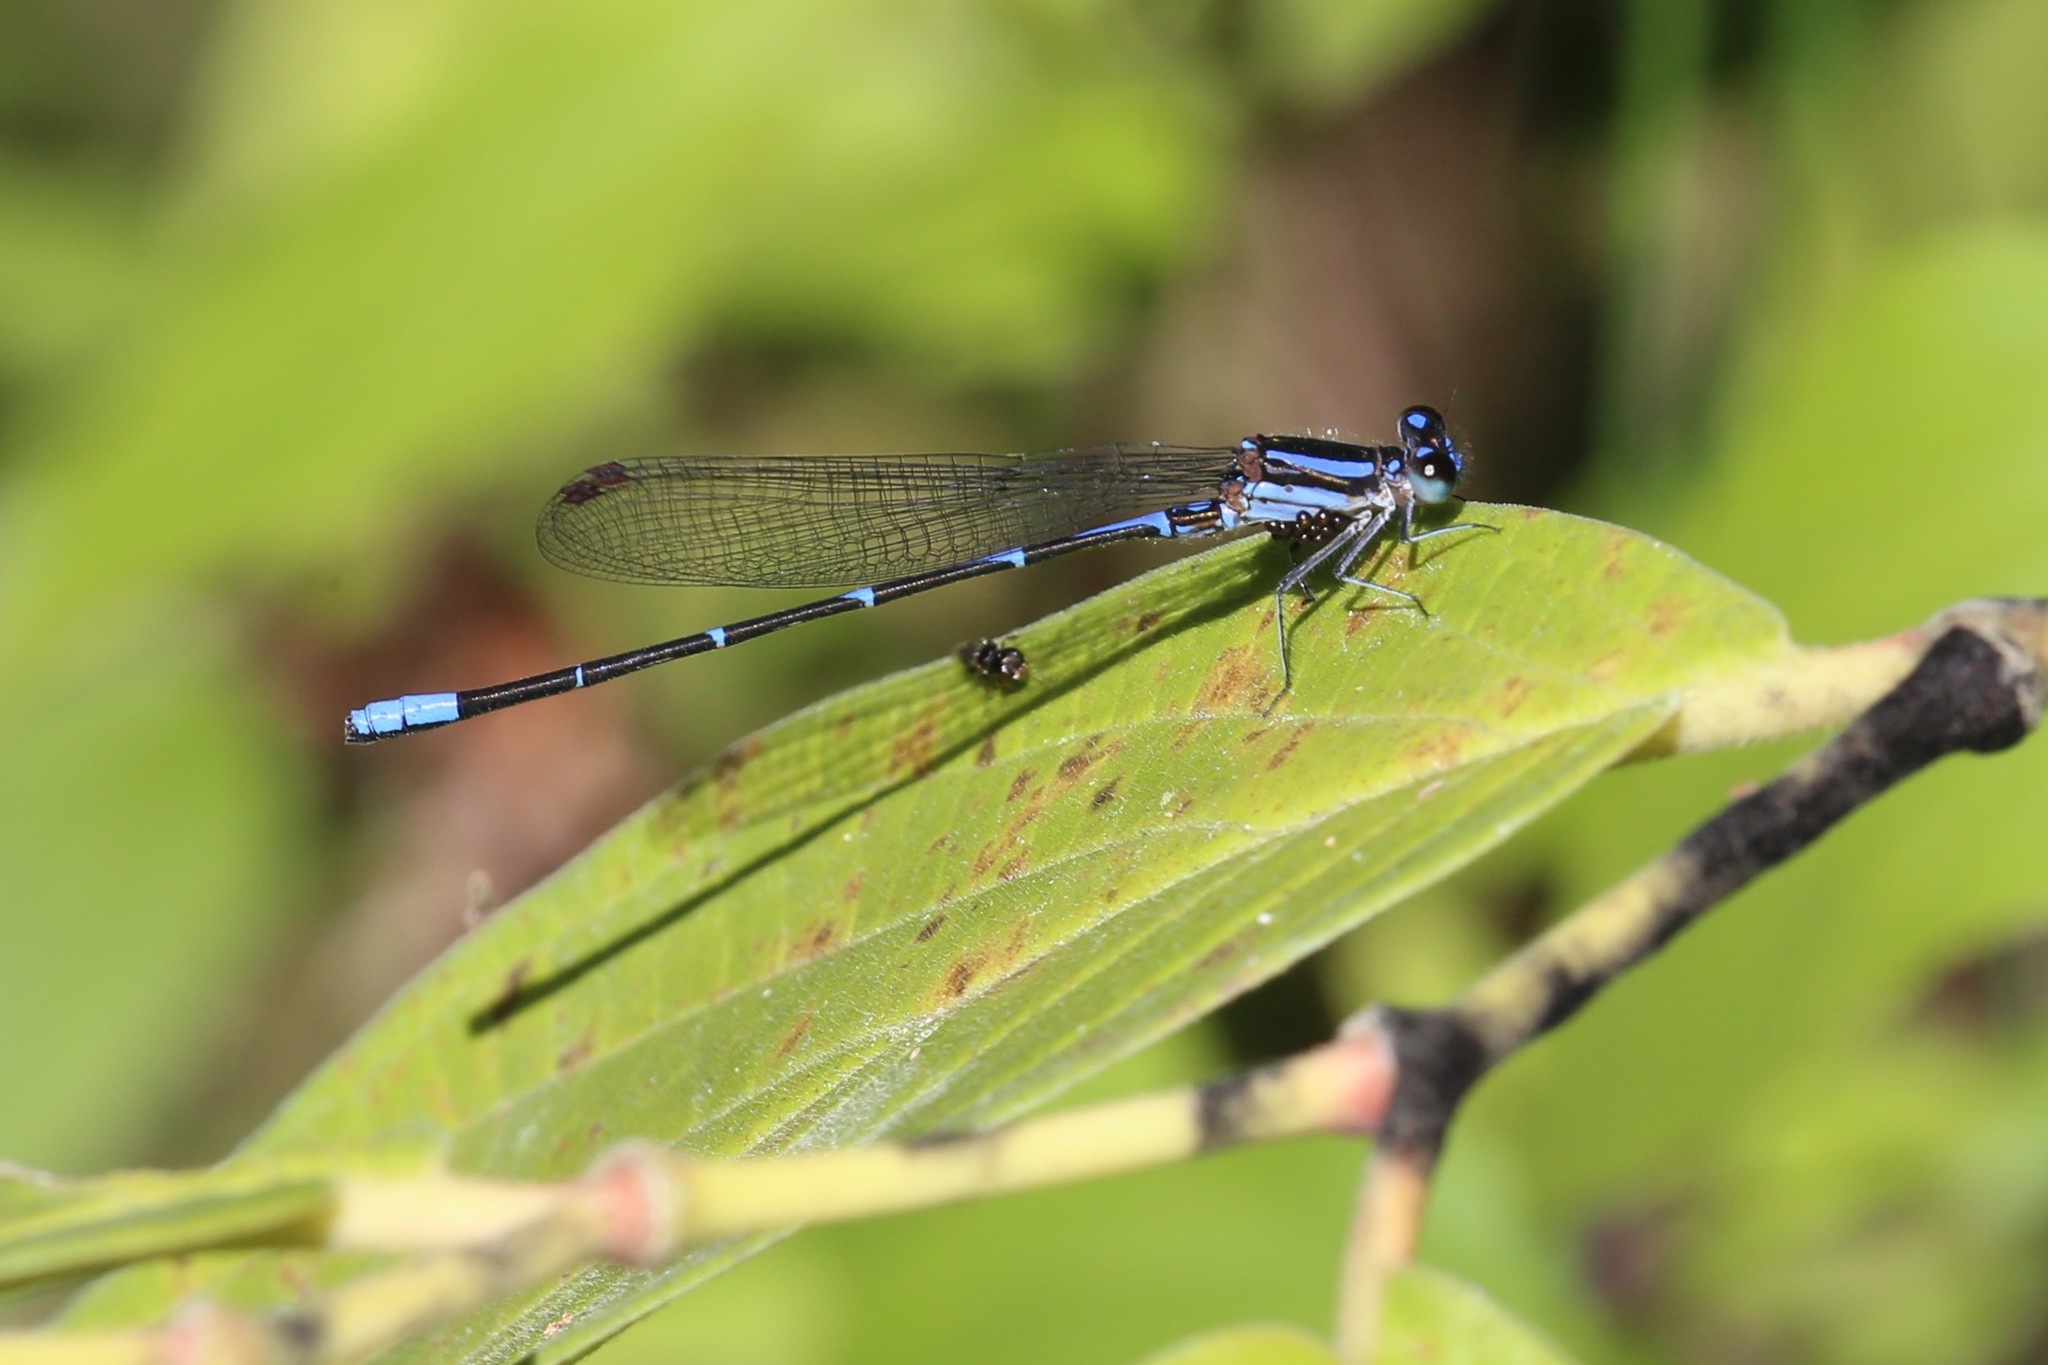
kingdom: Animalia
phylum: Arthropoda
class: Insecta
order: Odonata
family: Coenagrionidae
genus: Argia
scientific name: Argia oculata
